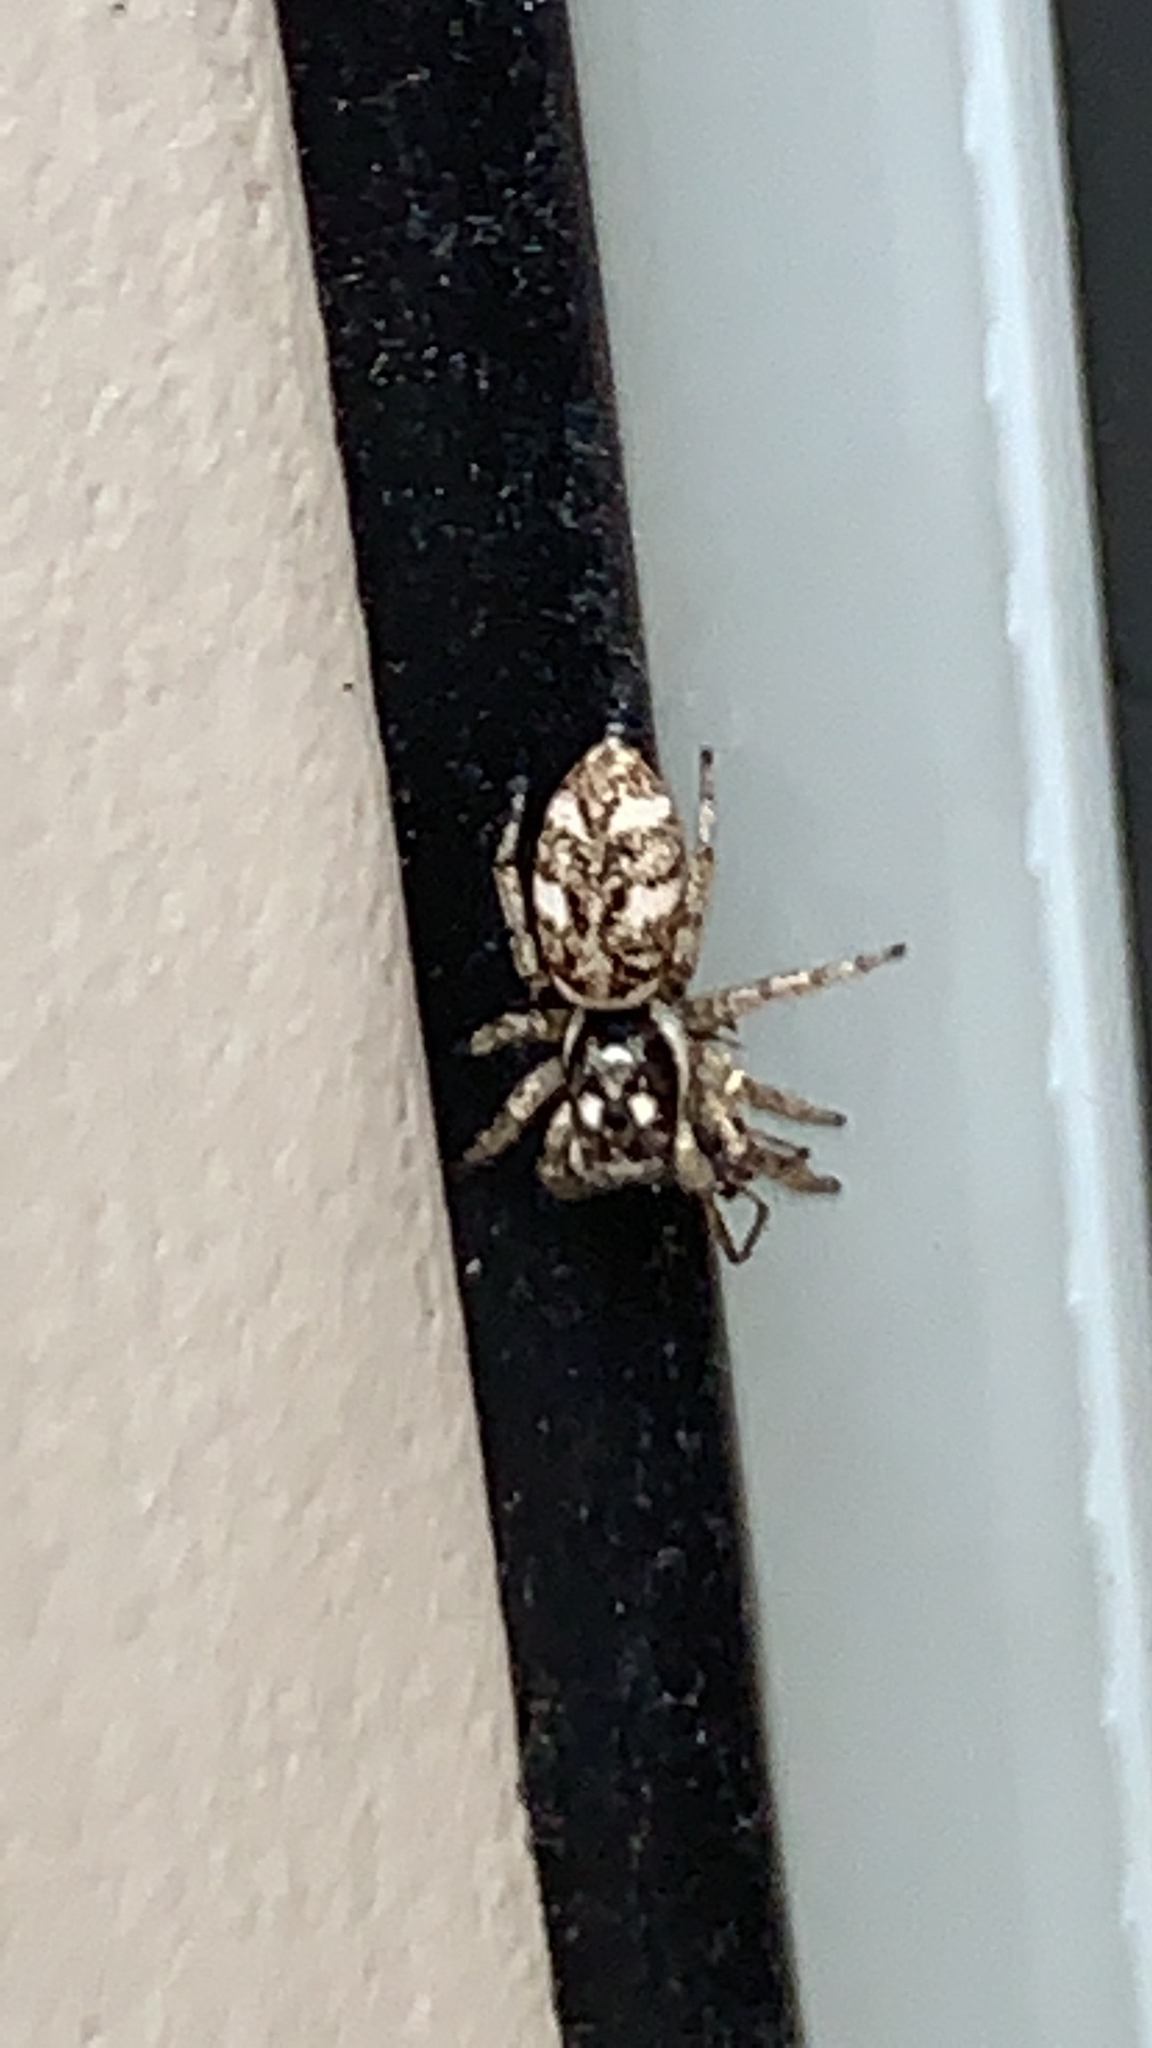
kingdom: Animalia
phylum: Arthropoda
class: Arachnida
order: Araneae
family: Salticidae
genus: Salticus
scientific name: Salticus scenicus
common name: Zebra jumper
